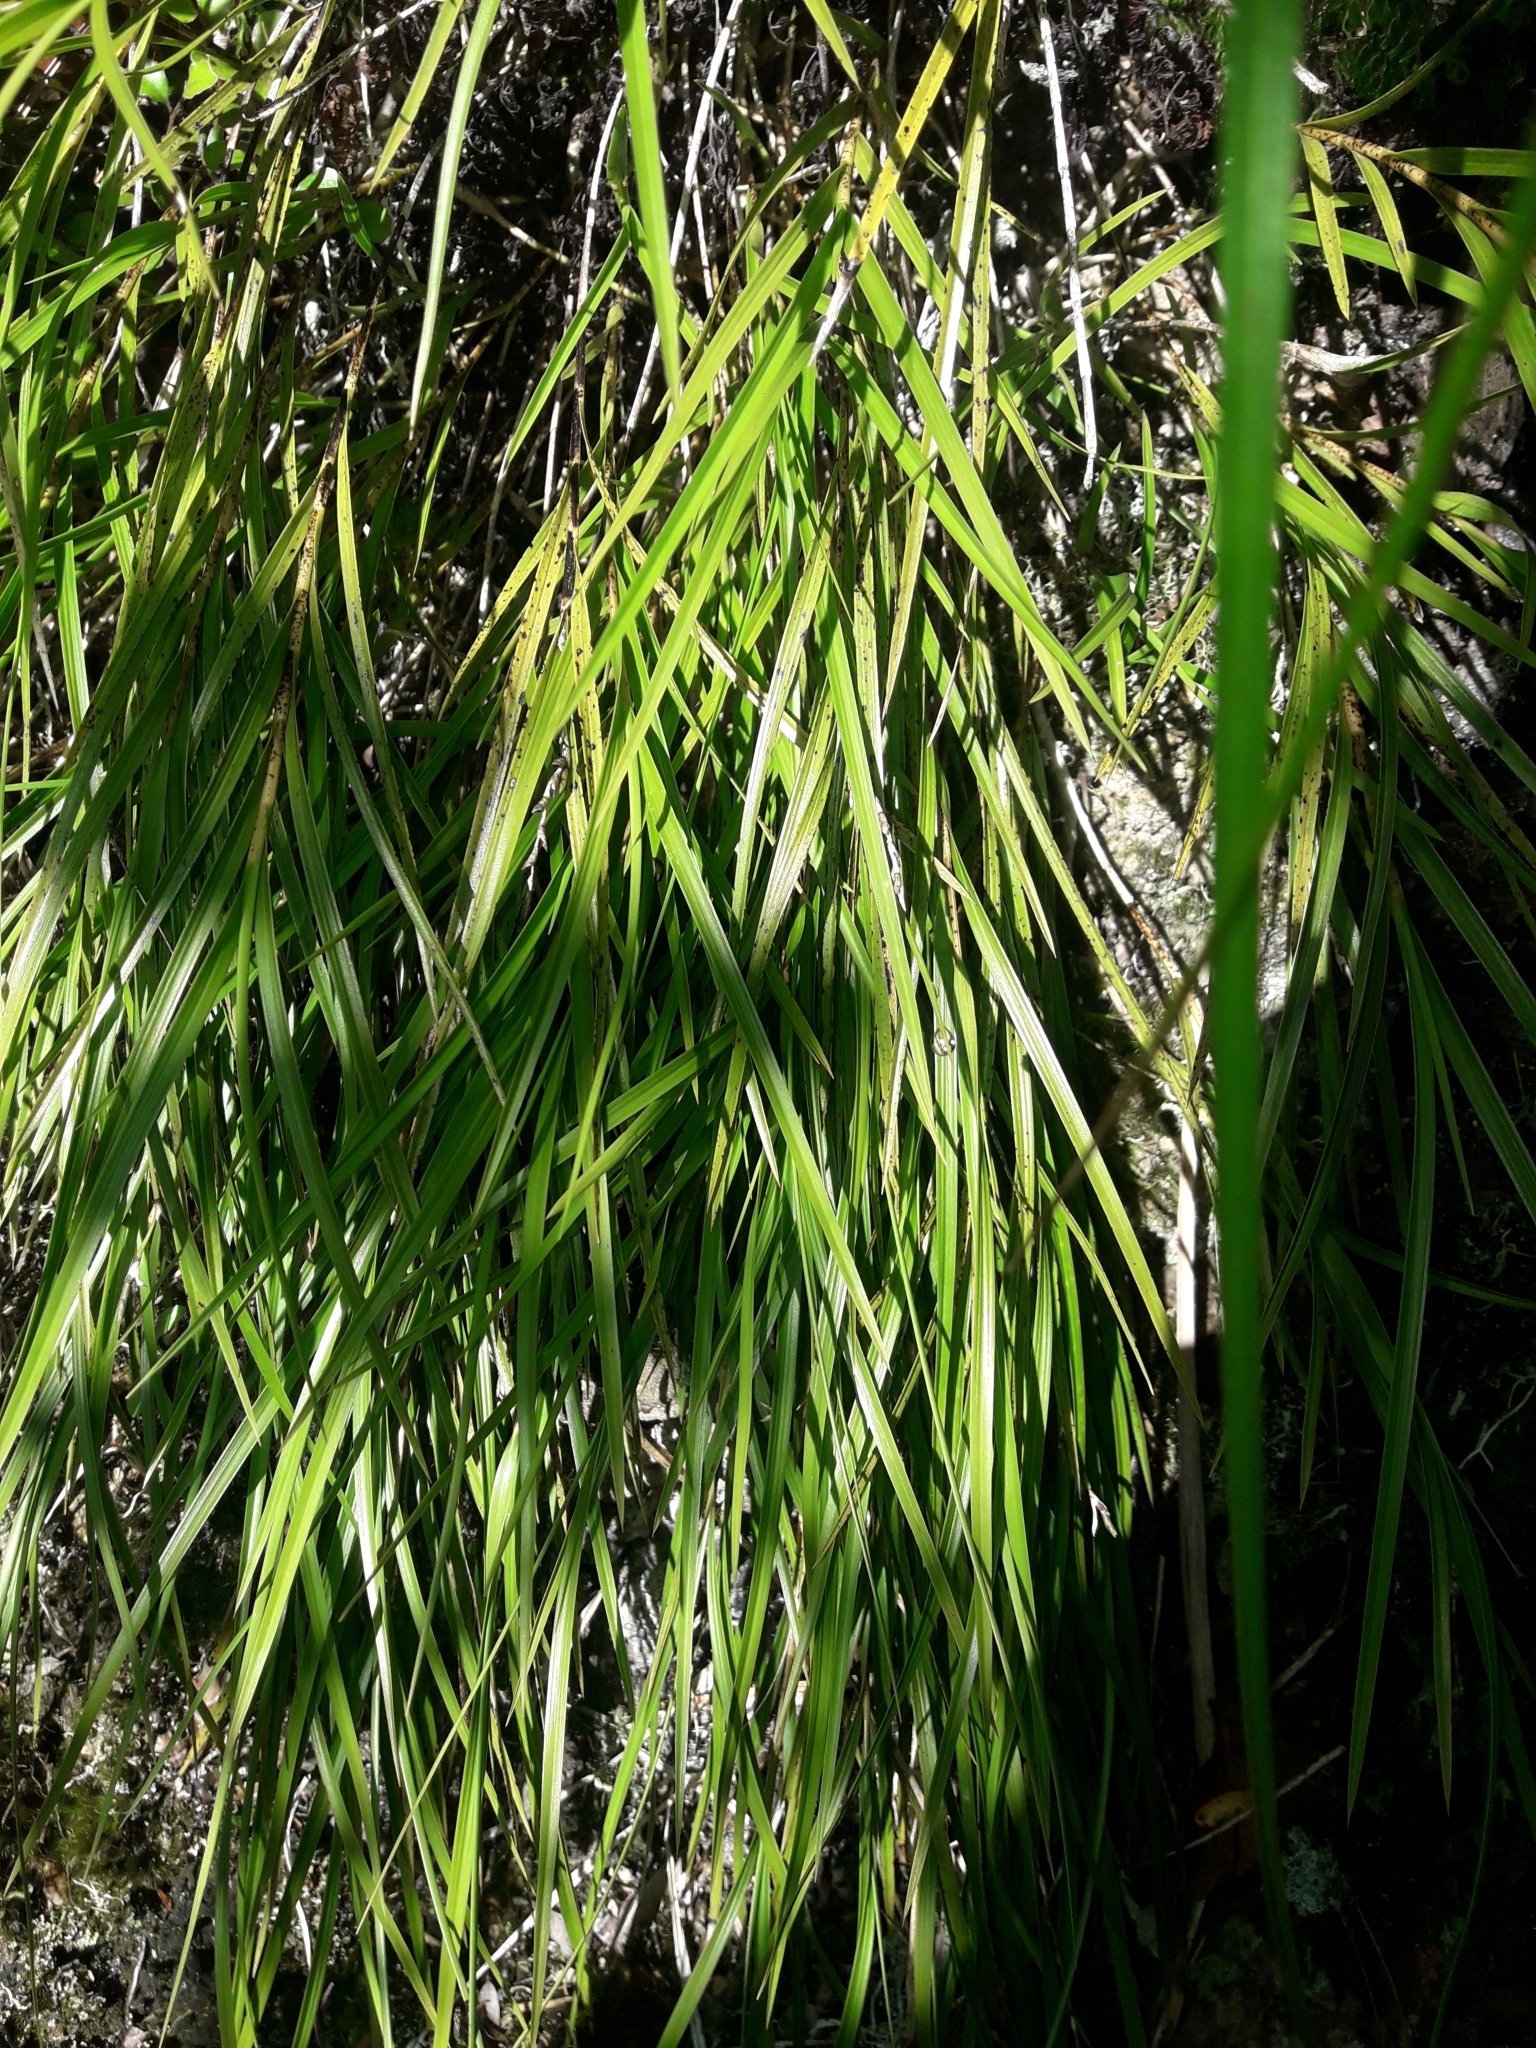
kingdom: Plantae
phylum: Tracheophyta
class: Liliopsida
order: Asparagales
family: Orchidaceae
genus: Earina
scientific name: Earina mucronata
